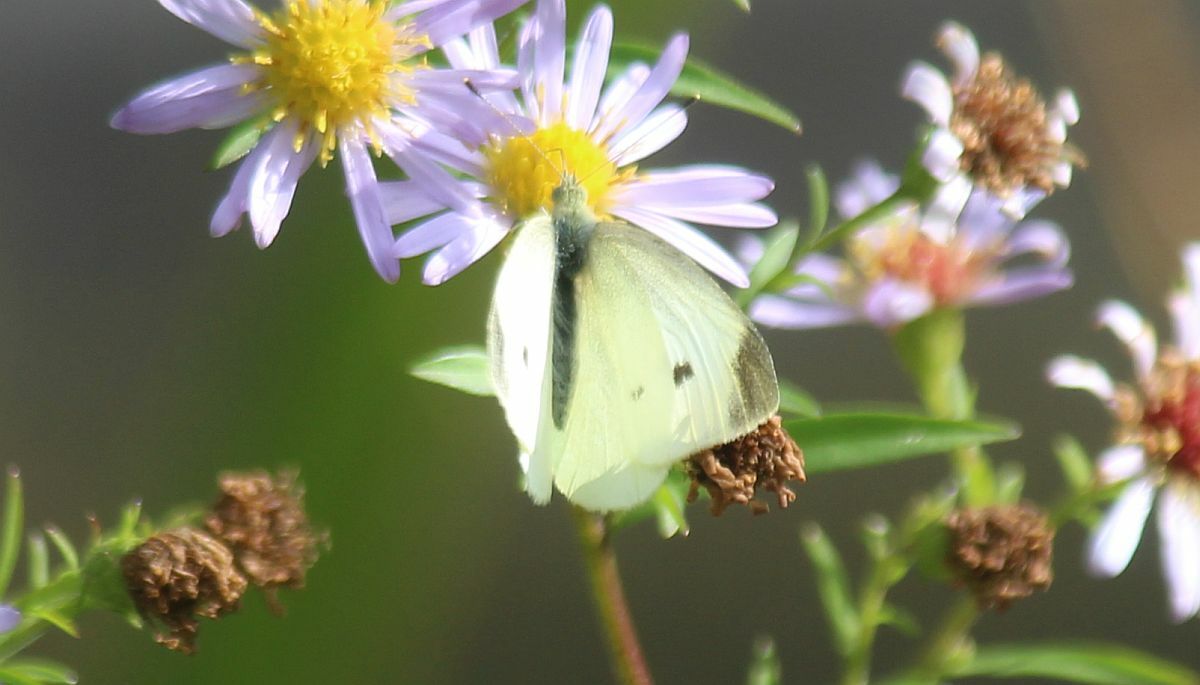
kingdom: Animalia
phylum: Arthropoda
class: Insecta
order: Lepidoptera
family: Pieridae
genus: Pieris
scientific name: Pieris rapae
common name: Small white
